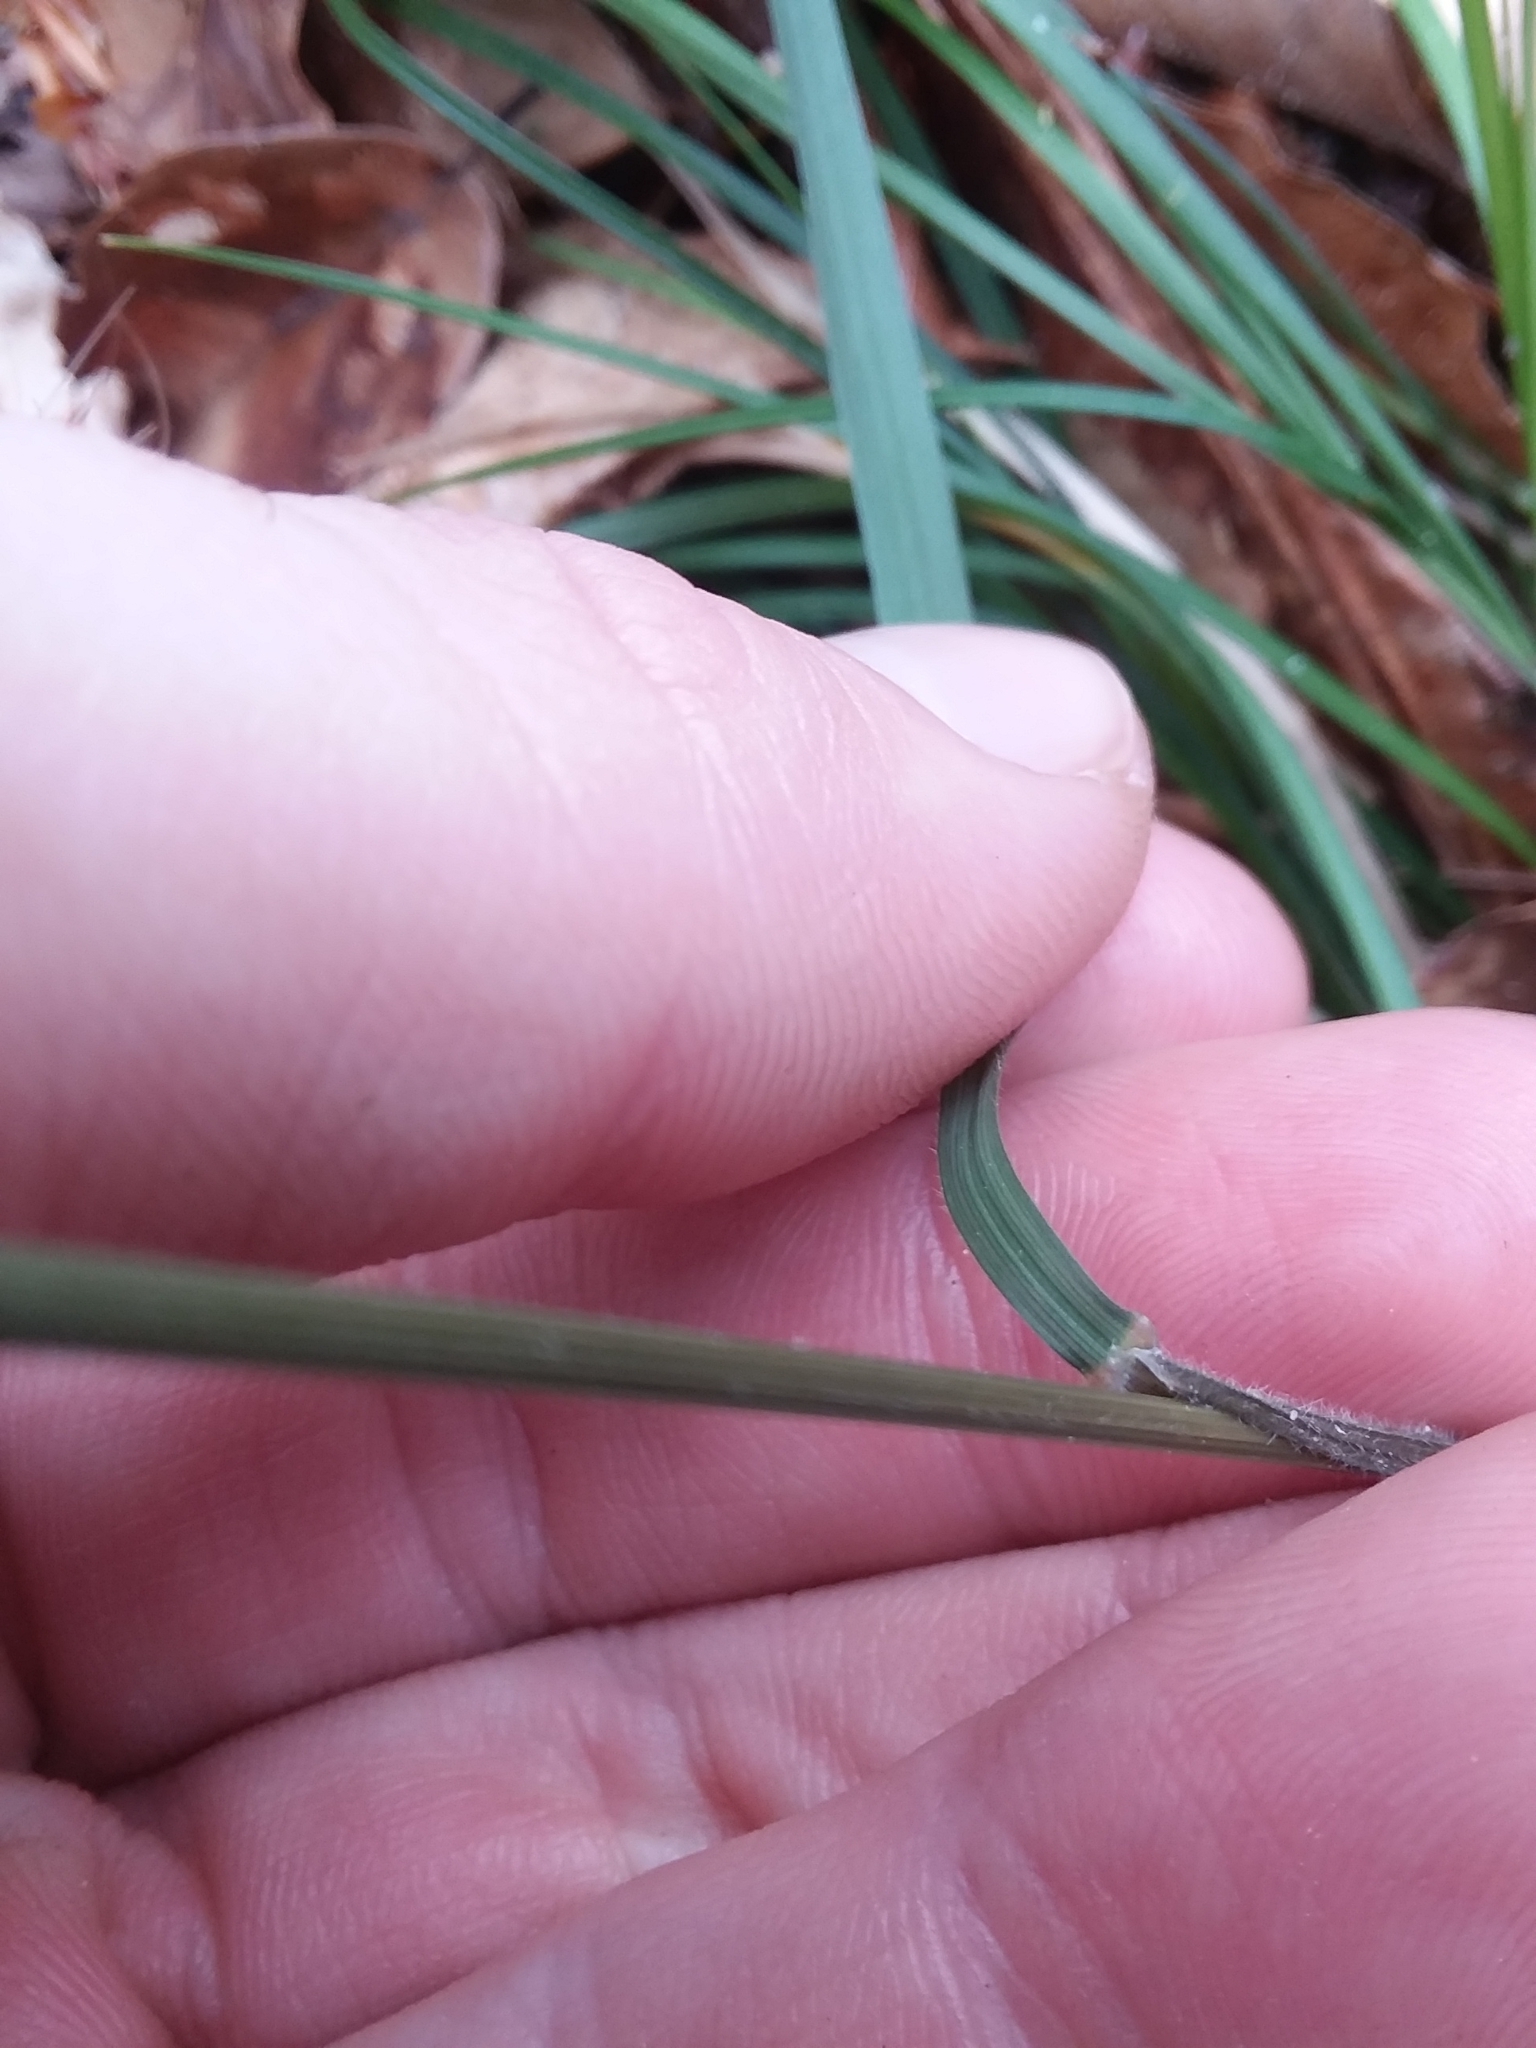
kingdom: Plantae
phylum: Tracheophyta
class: Liliopsida
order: Poales
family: Poaceae
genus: Melica
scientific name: Melica mutica
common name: Two-flower melic
